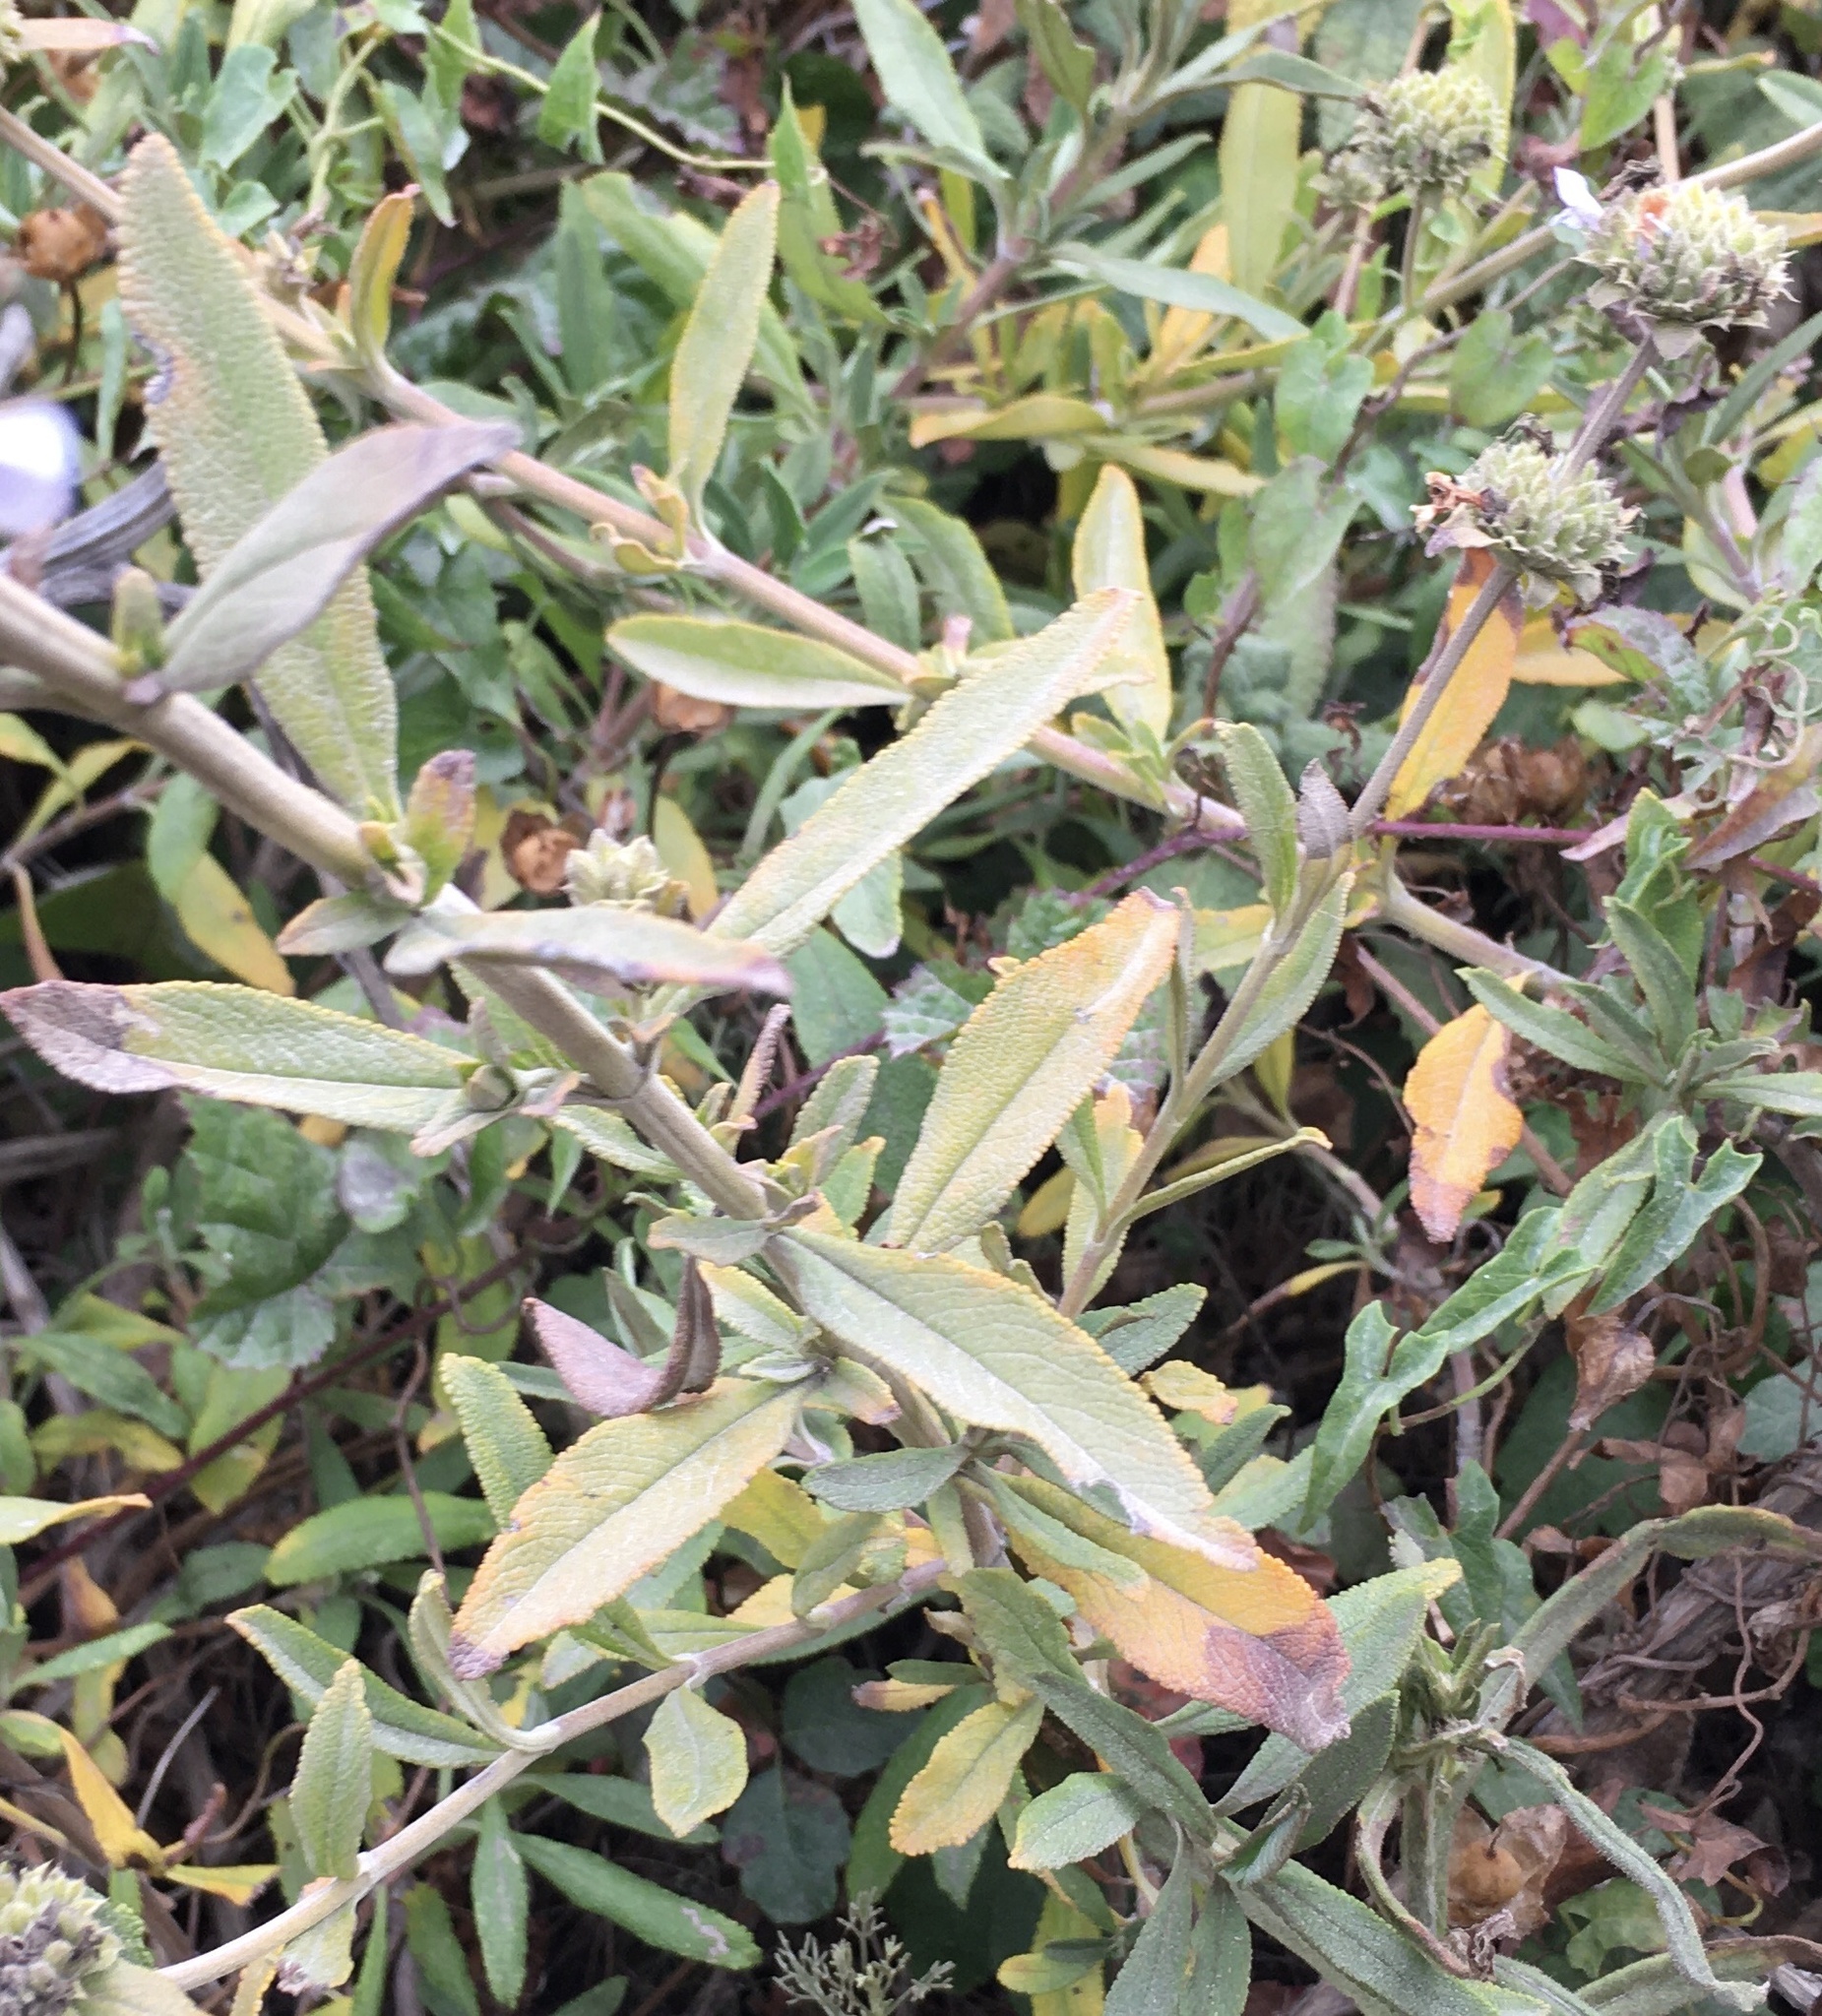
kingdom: Plantae
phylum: Tracheophyta
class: Magnoliopsida
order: Lamiales
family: Lamiaceae
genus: Salvia
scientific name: Salvia mellifera
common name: Black sage
